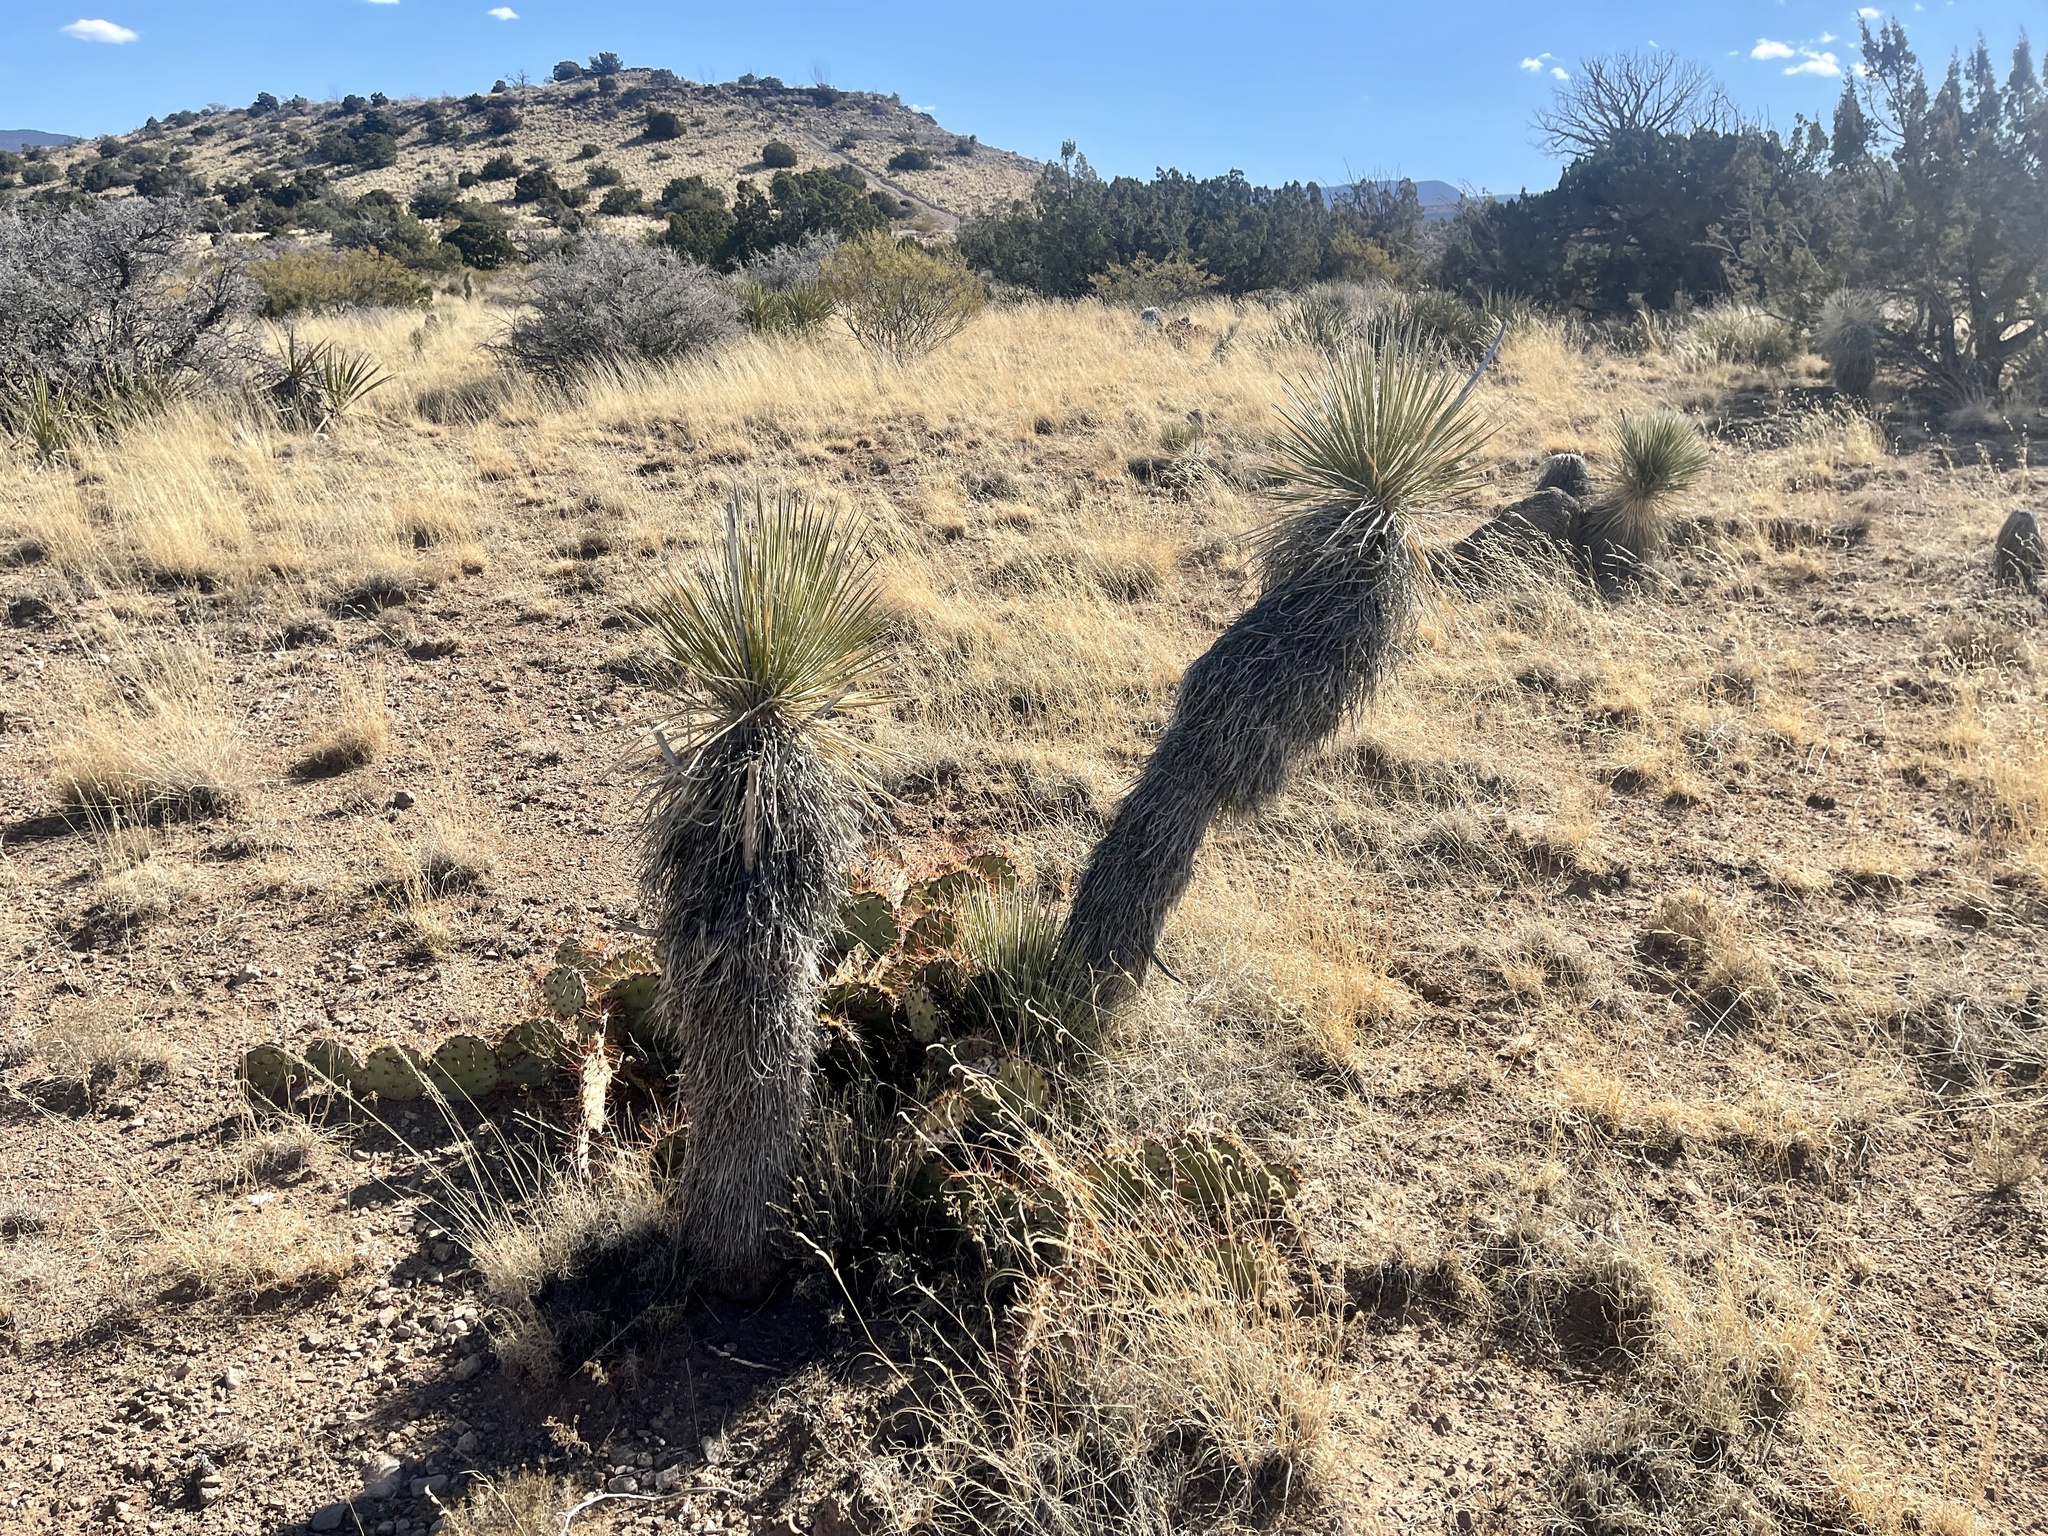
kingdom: Plantae
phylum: Tracheophyta
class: Liliopsida
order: Asparagales
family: Asparagaceae
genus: Yucca
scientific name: Yucca elata
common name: Palmella
